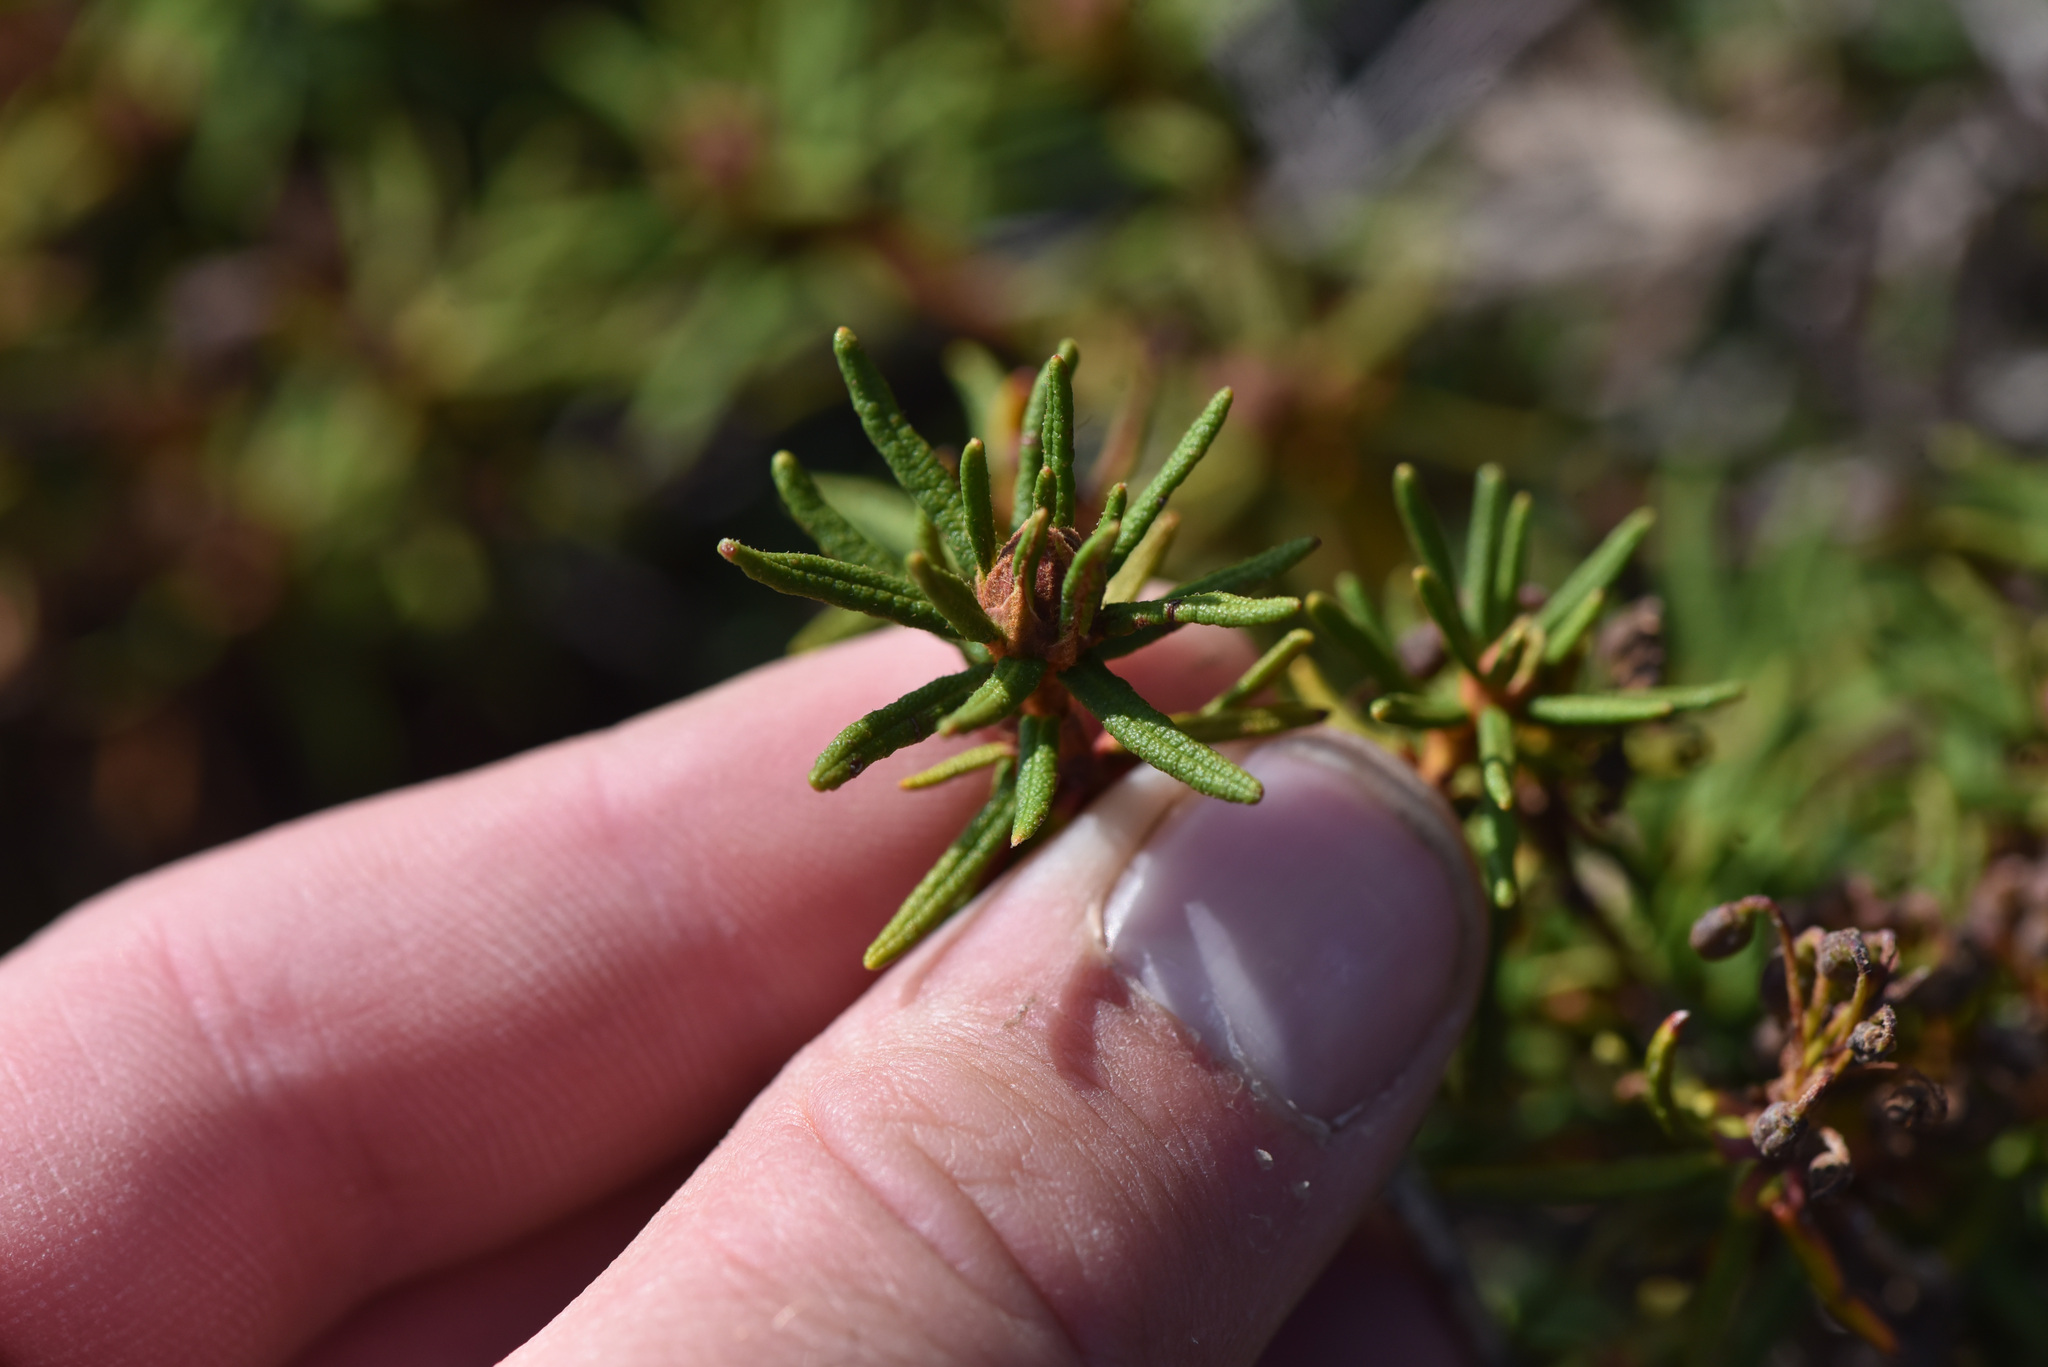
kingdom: Plantae
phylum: Tracheophyta
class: Magnoliopsida
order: Ericales
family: Ericaceae
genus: Rhododendron
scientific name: Rhododendron groenlandicum
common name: Bog labrador tea
